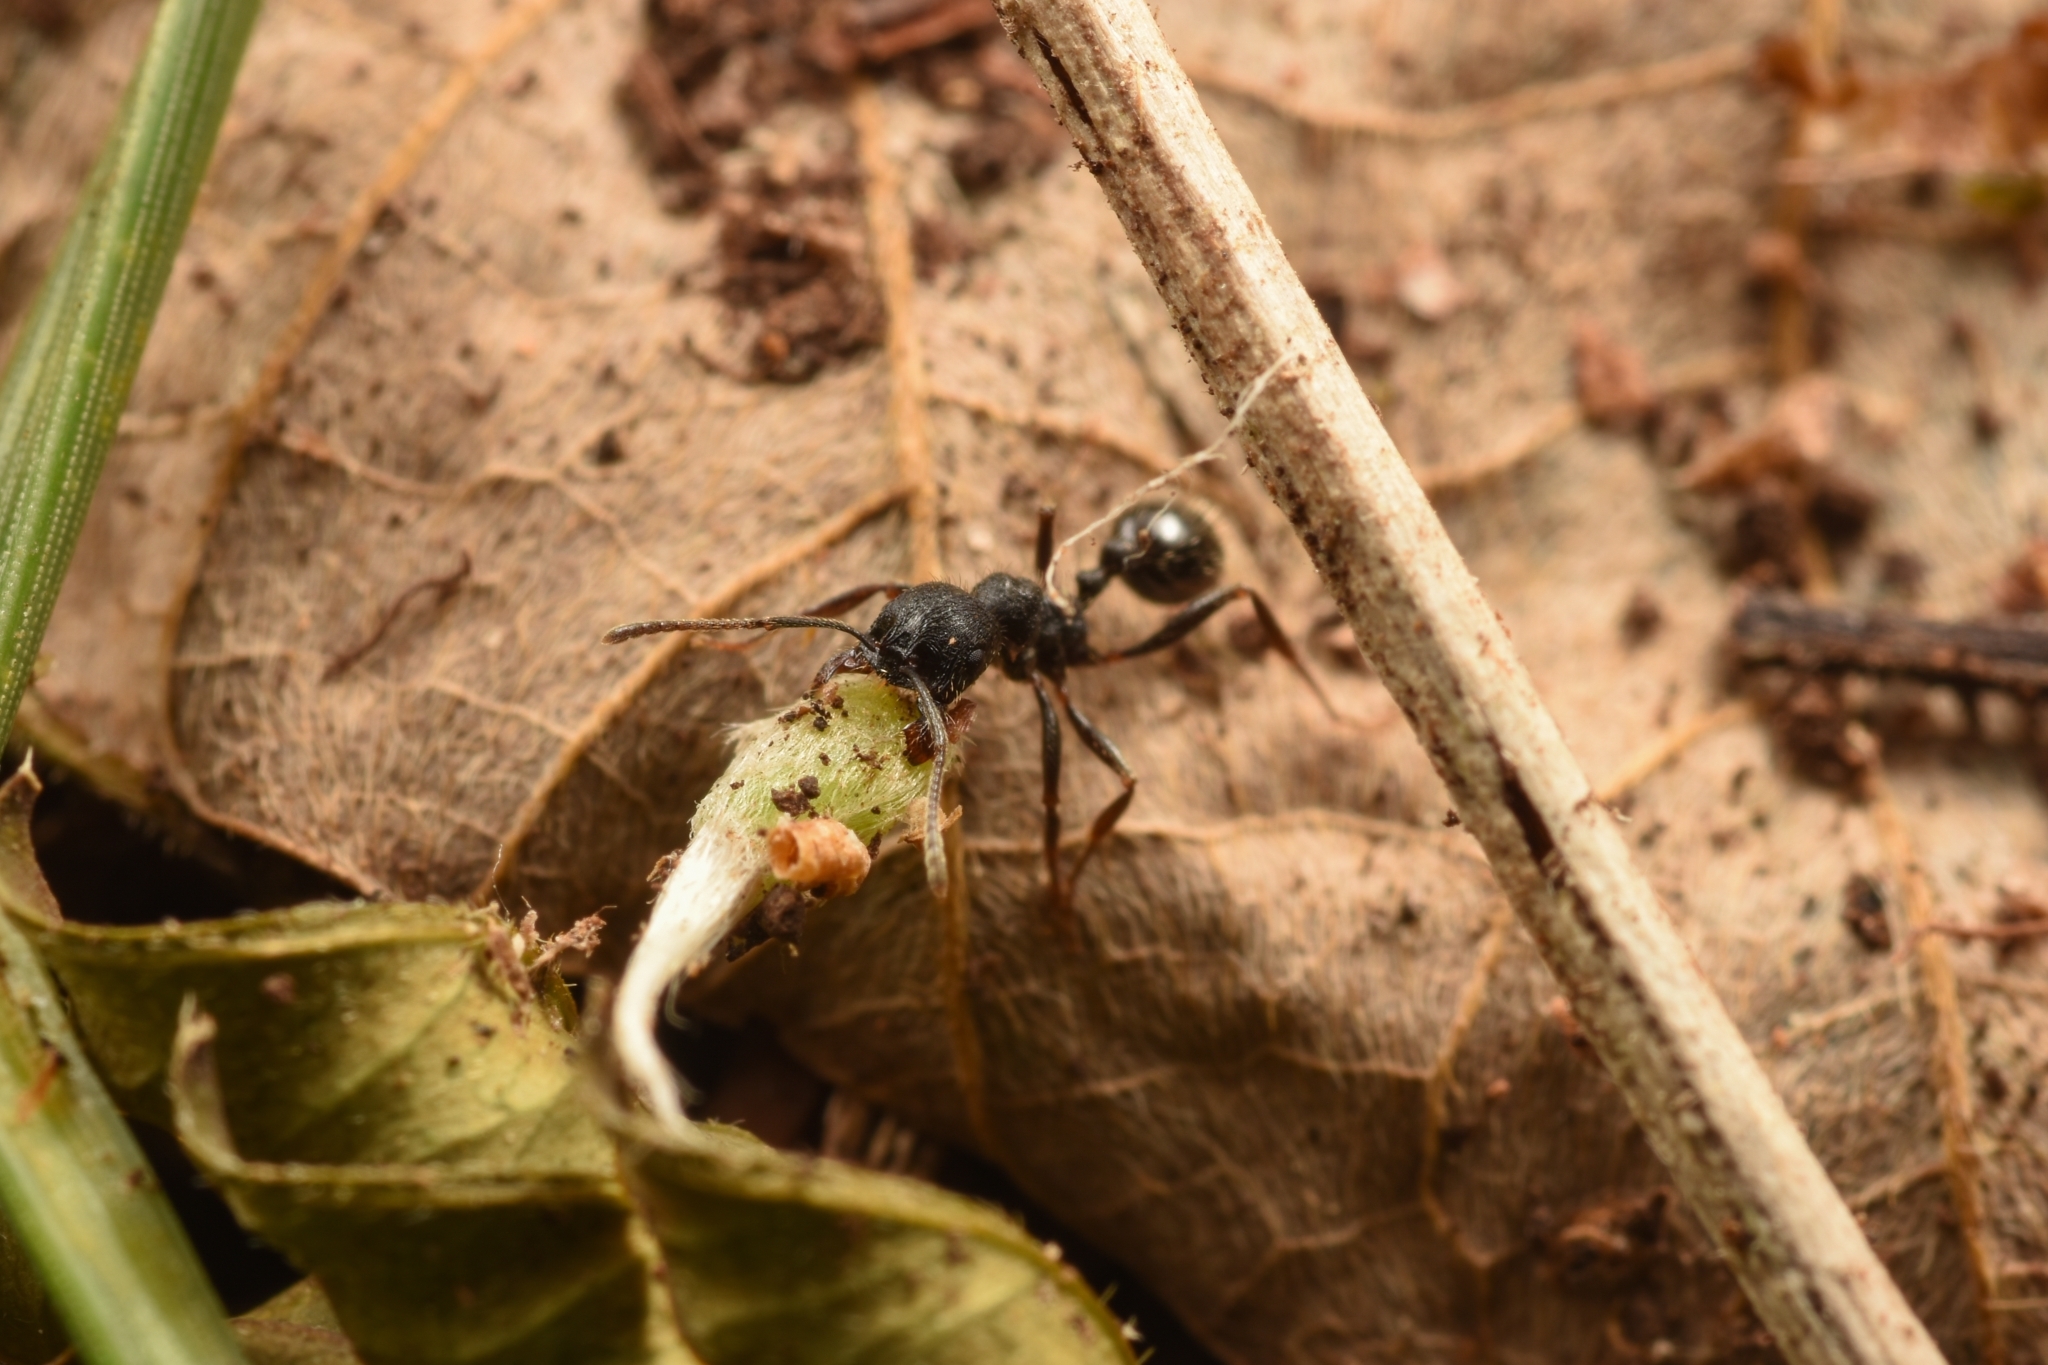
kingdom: Animalia
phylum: Arthropoda
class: Insecta
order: Hymenoptera
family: Formicidae
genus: Messor
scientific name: Messor aciculatus
